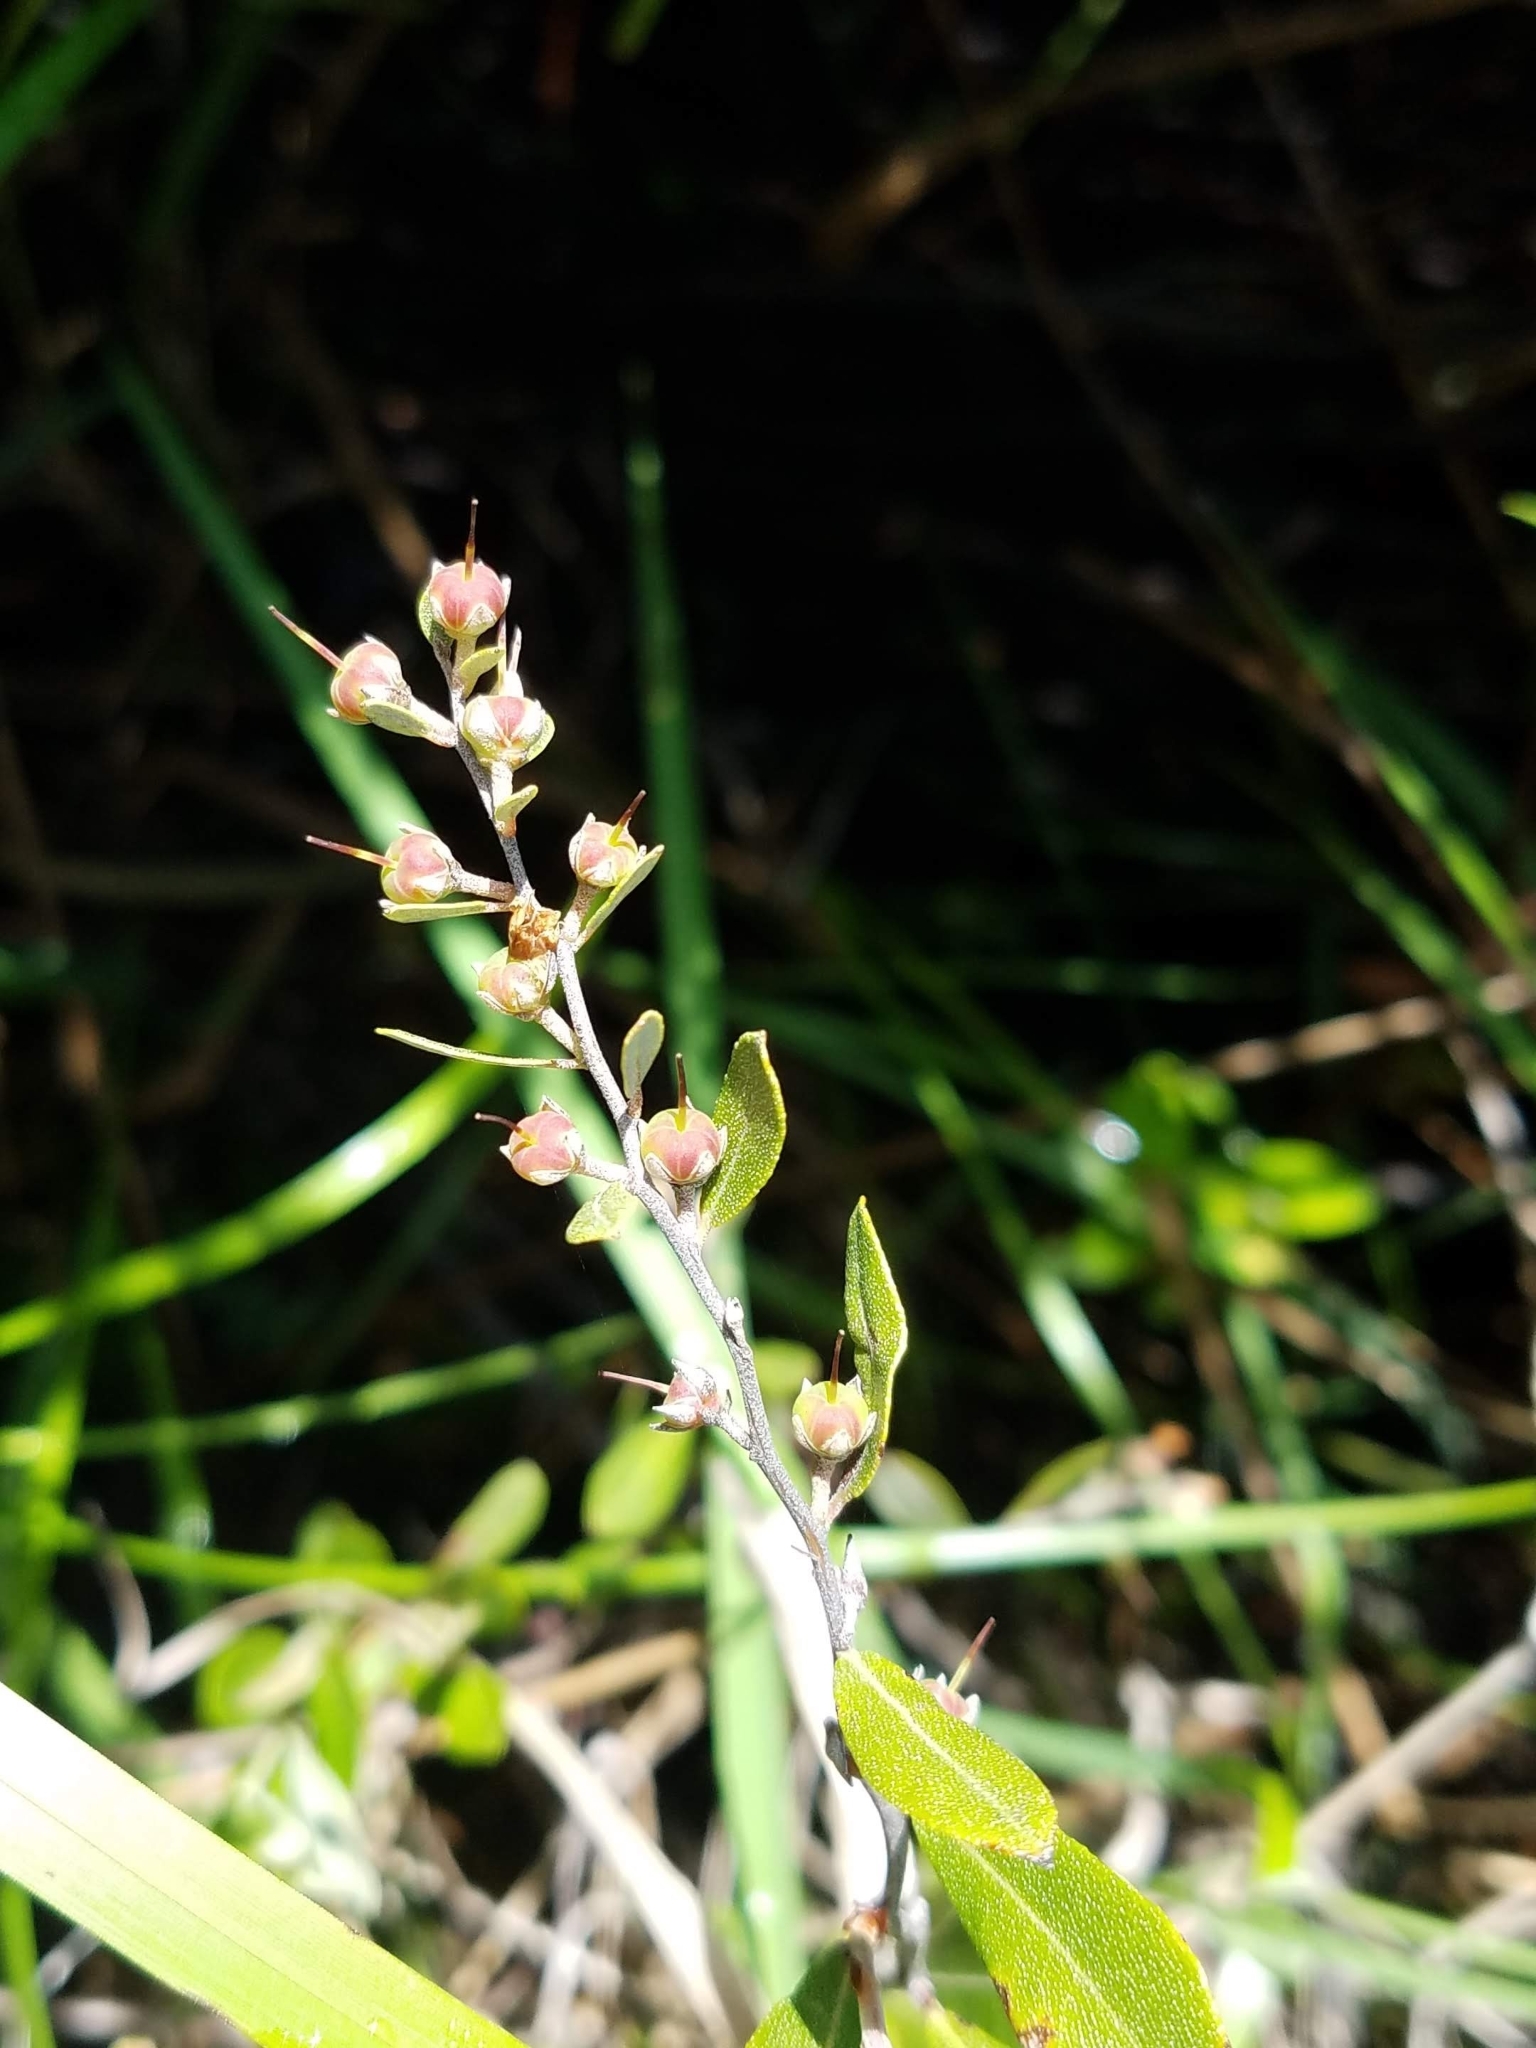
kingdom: Plantae
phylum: Tracheophyta
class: Magnoliopsida
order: Ericales
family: Ericaceae
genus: Chamaedaphne
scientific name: Chamaedaphne calyculata
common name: Leatherleaf
